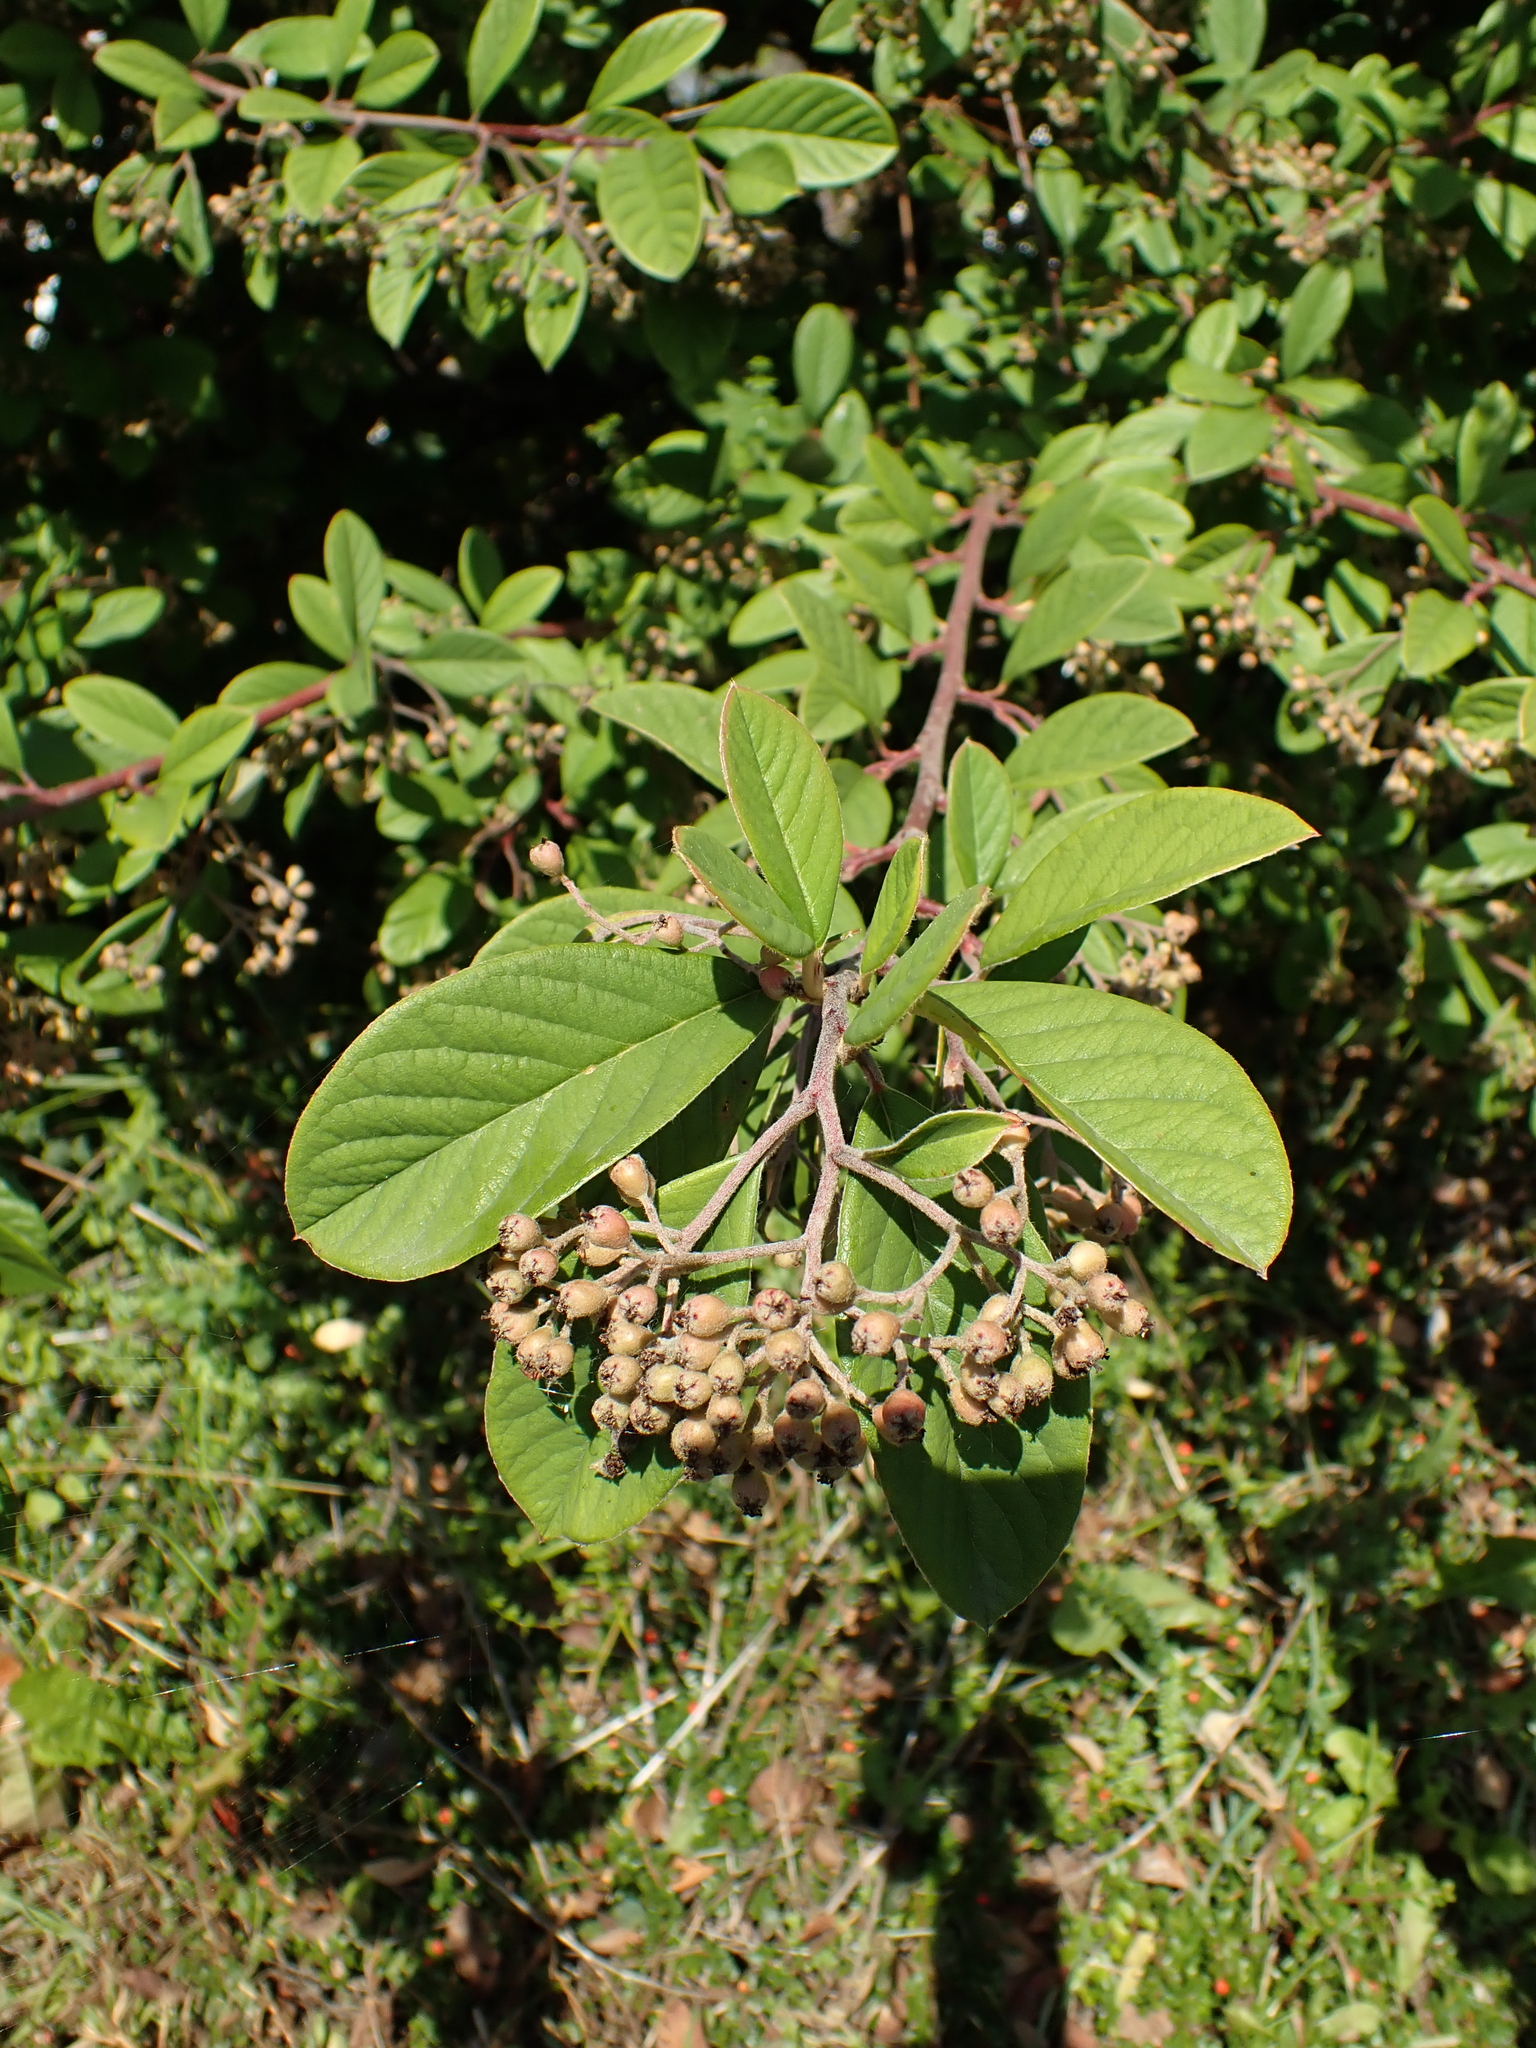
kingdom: Plantae
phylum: Tracheophyta
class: Magnoliopsida
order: Rosales
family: Rosaceae
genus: Cotoneaster
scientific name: Cotoneaster coriaceus
